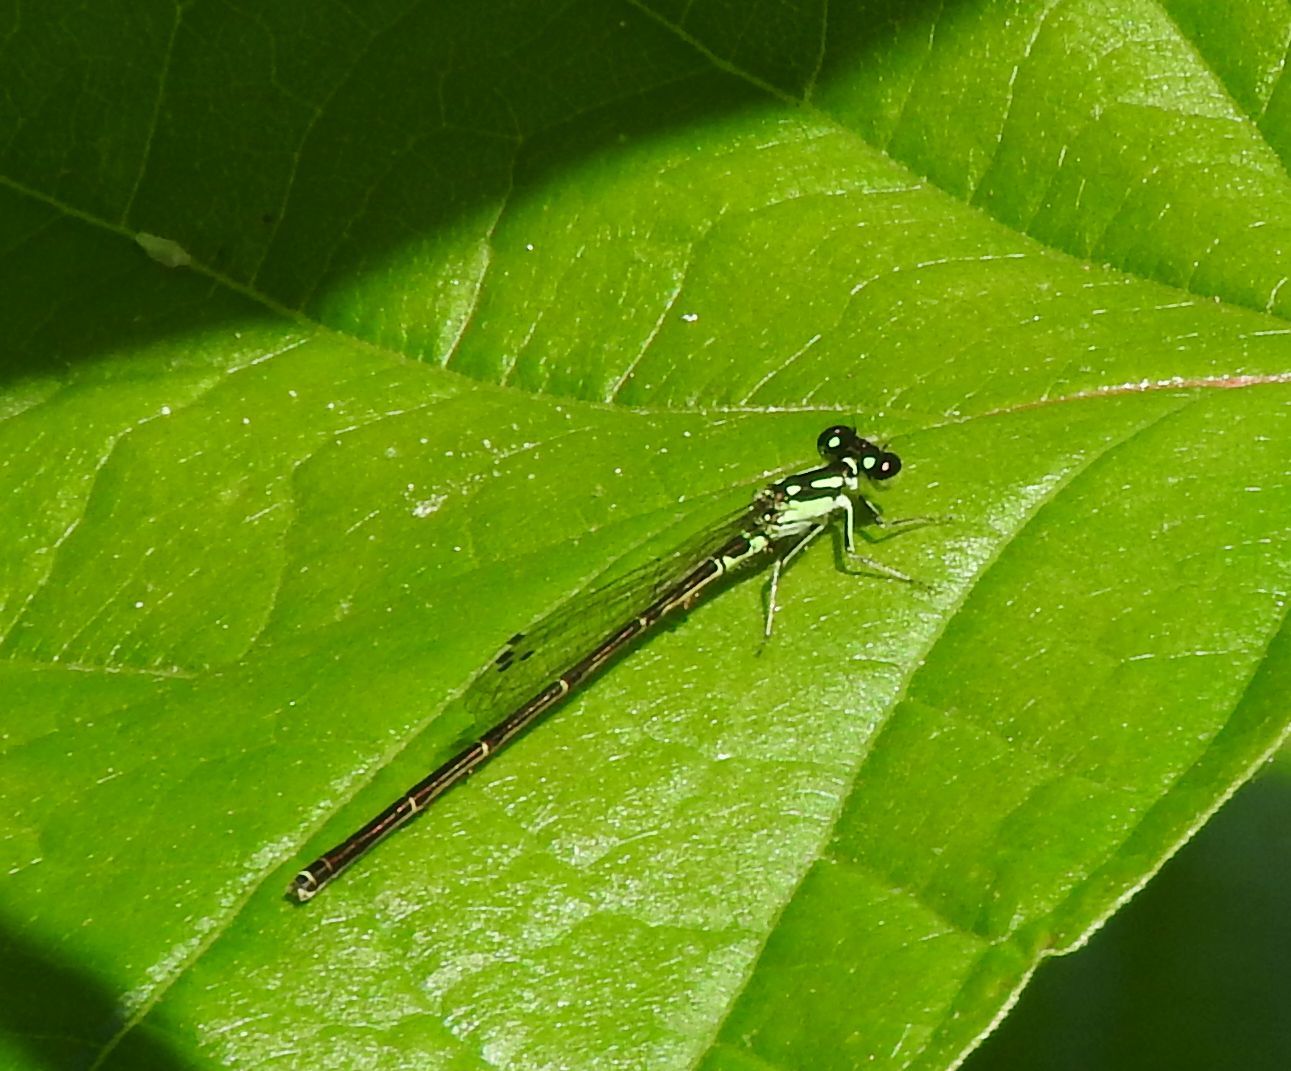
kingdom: Animalia
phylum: Arthropoda
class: Insecta
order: Odonata
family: Coenagrionidae
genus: Ischnura
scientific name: Ischnura posita
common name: Fragile forktail
